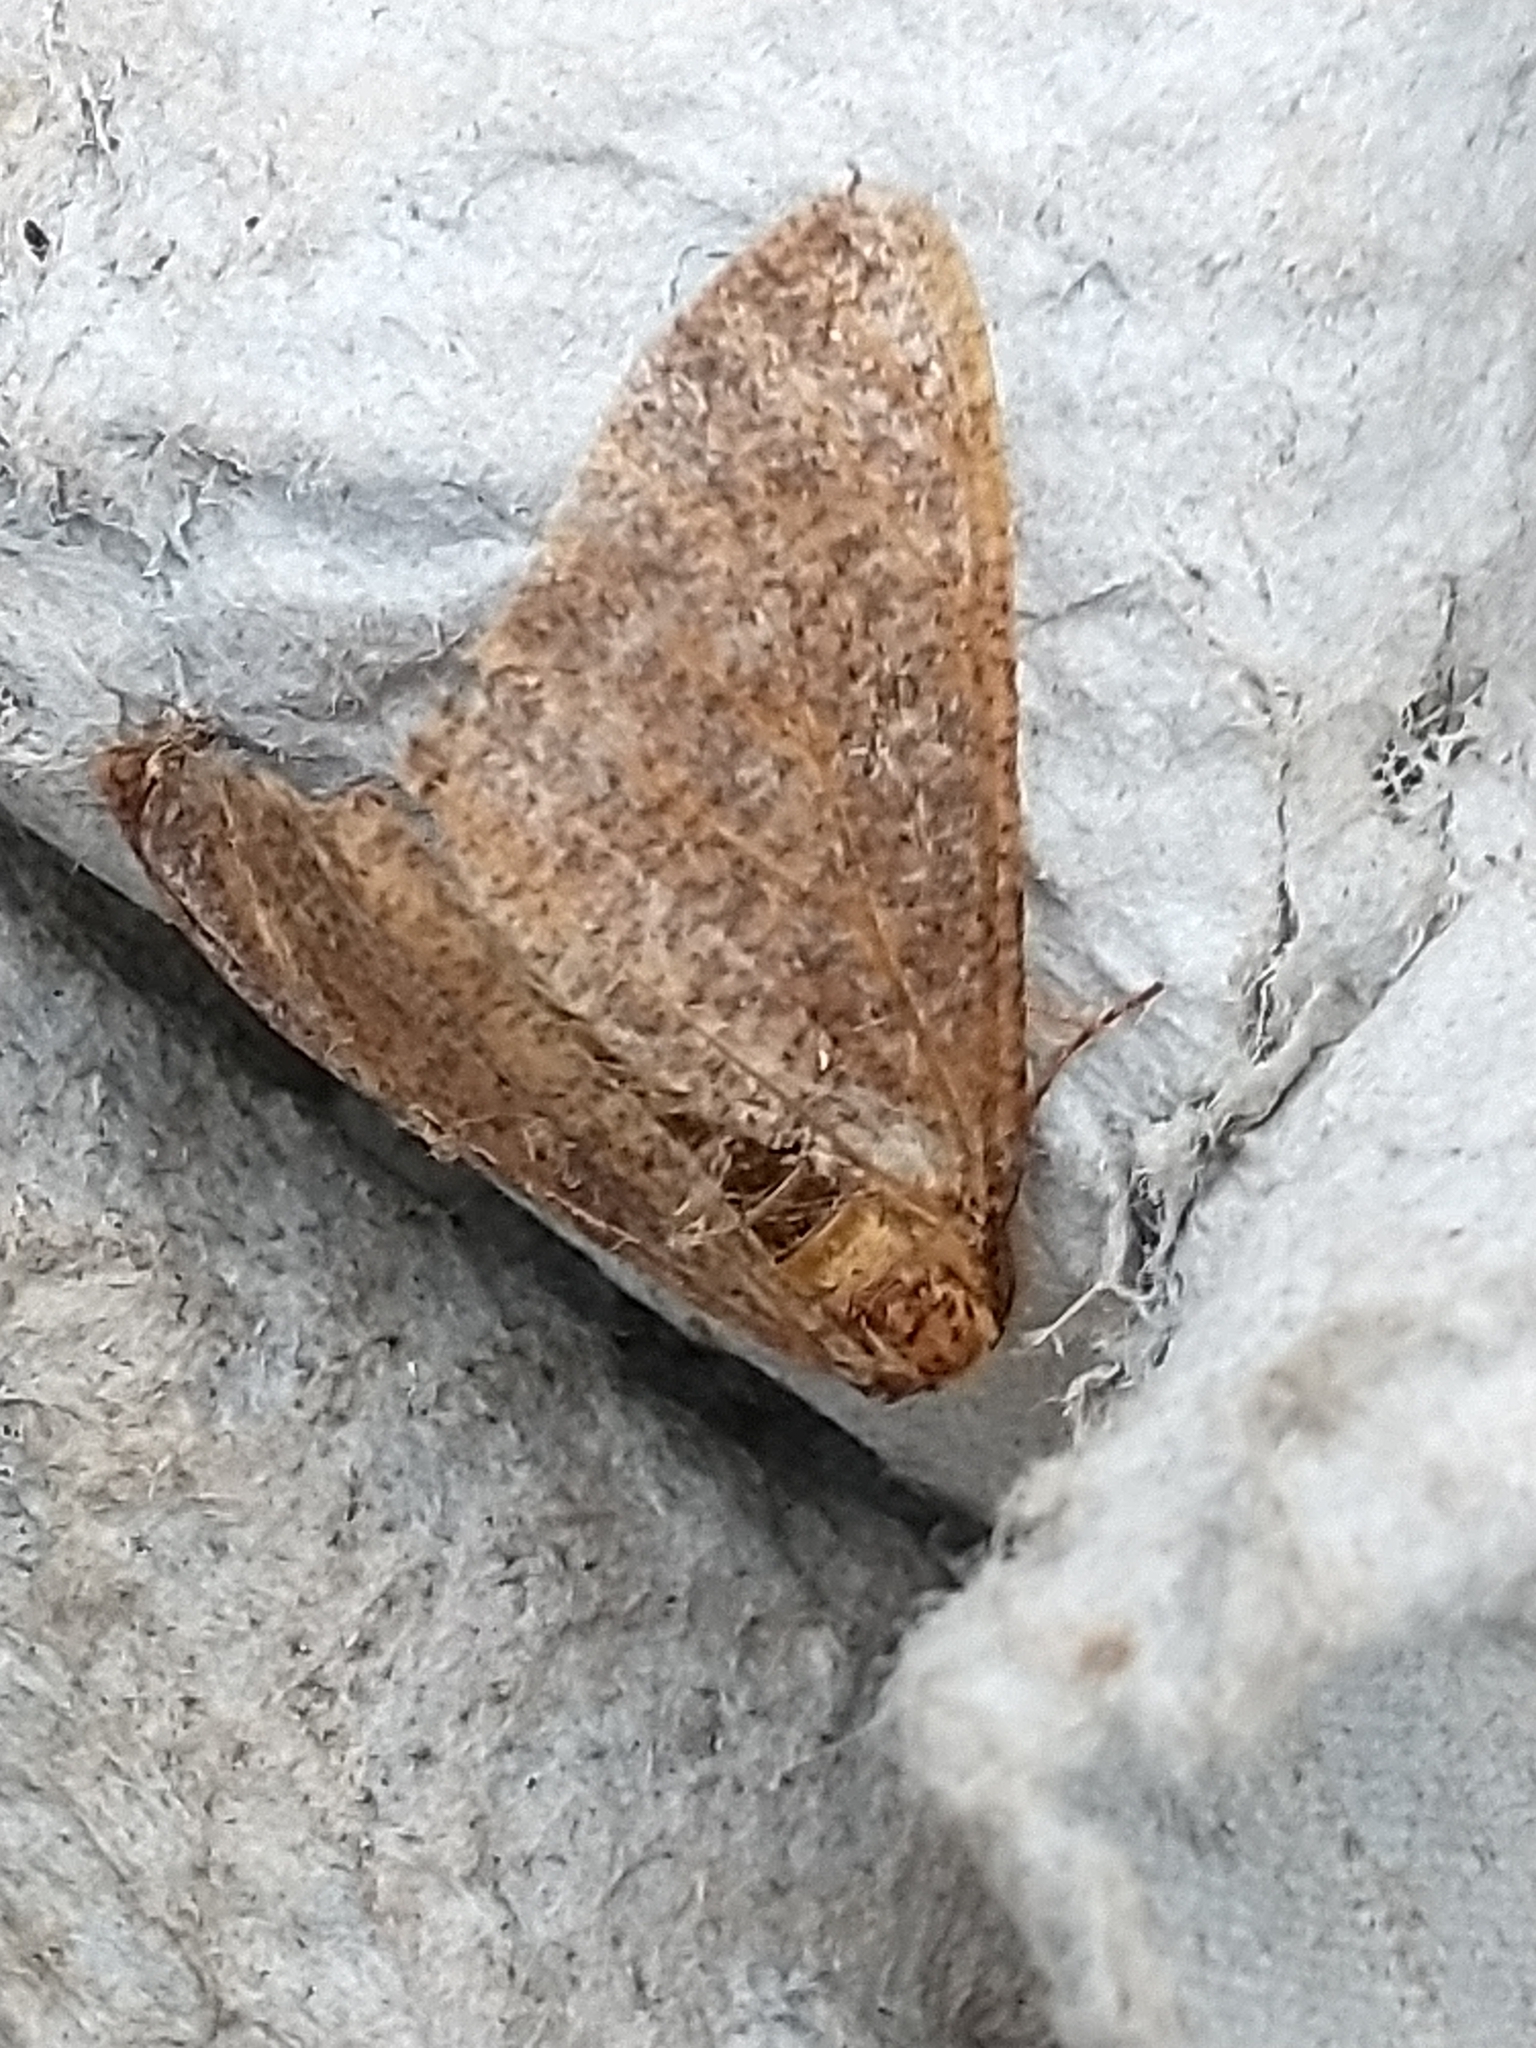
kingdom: Animalia
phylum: Arthropoda
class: Insecta
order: Lepidoptera
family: Geometridae
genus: Erannis
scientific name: Erannis defoliaria
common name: Mottled umber
